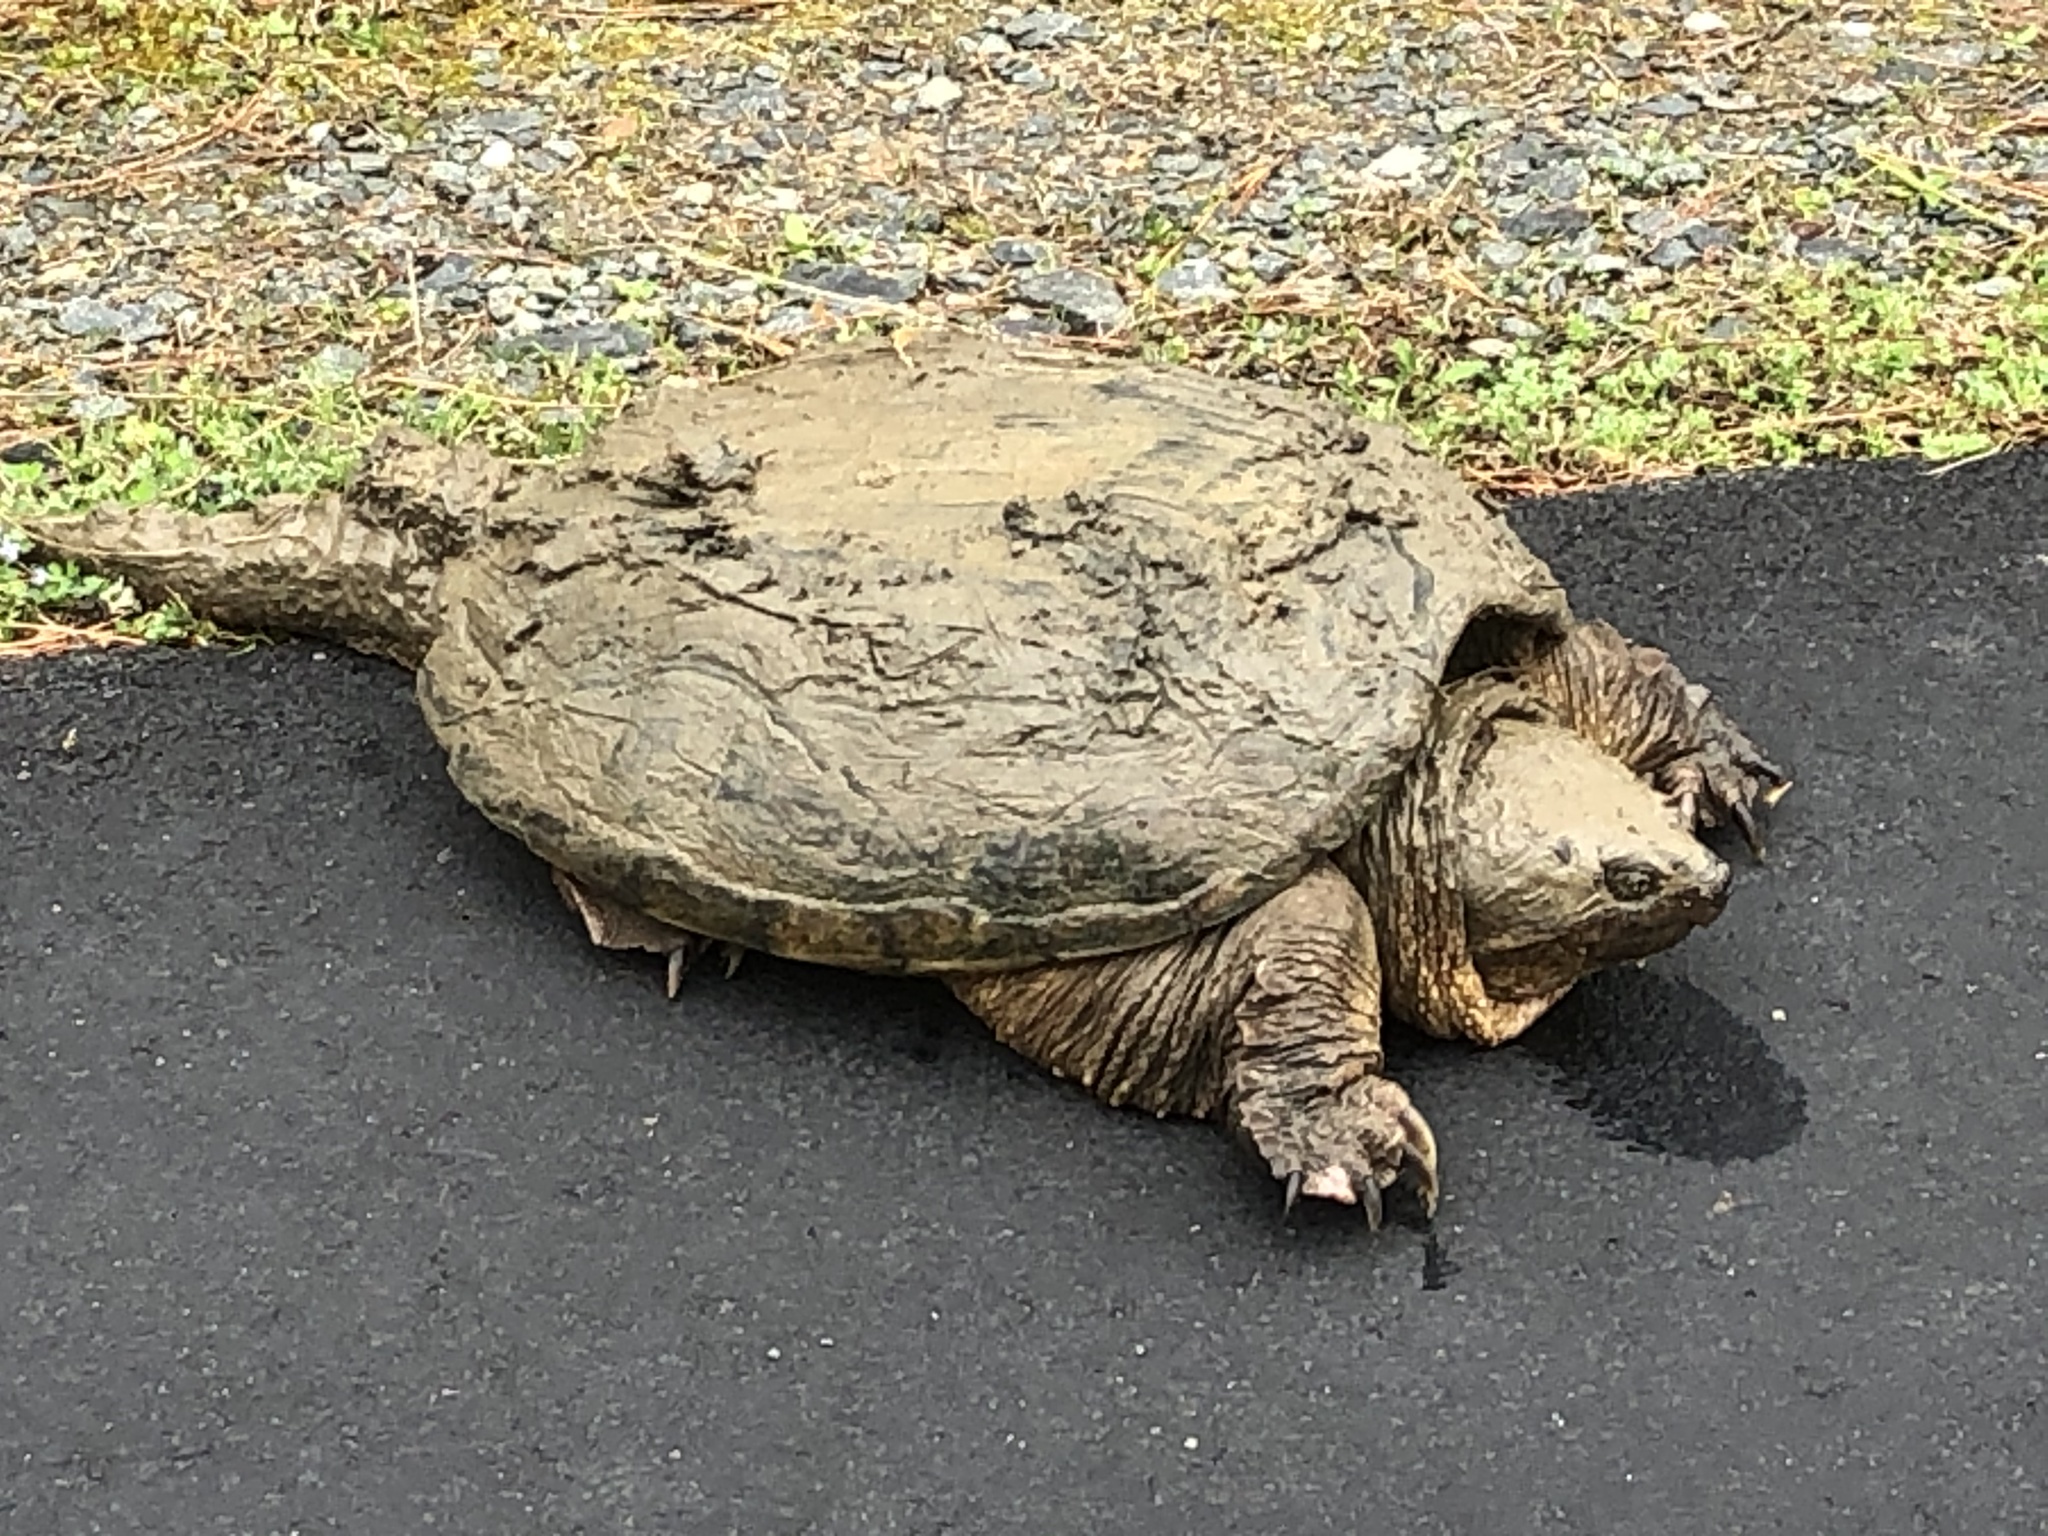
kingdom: Animalia
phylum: Chordata
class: Testudines
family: Chelydridae
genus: Chelydra
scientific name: Chelydra serpentina
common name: Common snapping turtle
